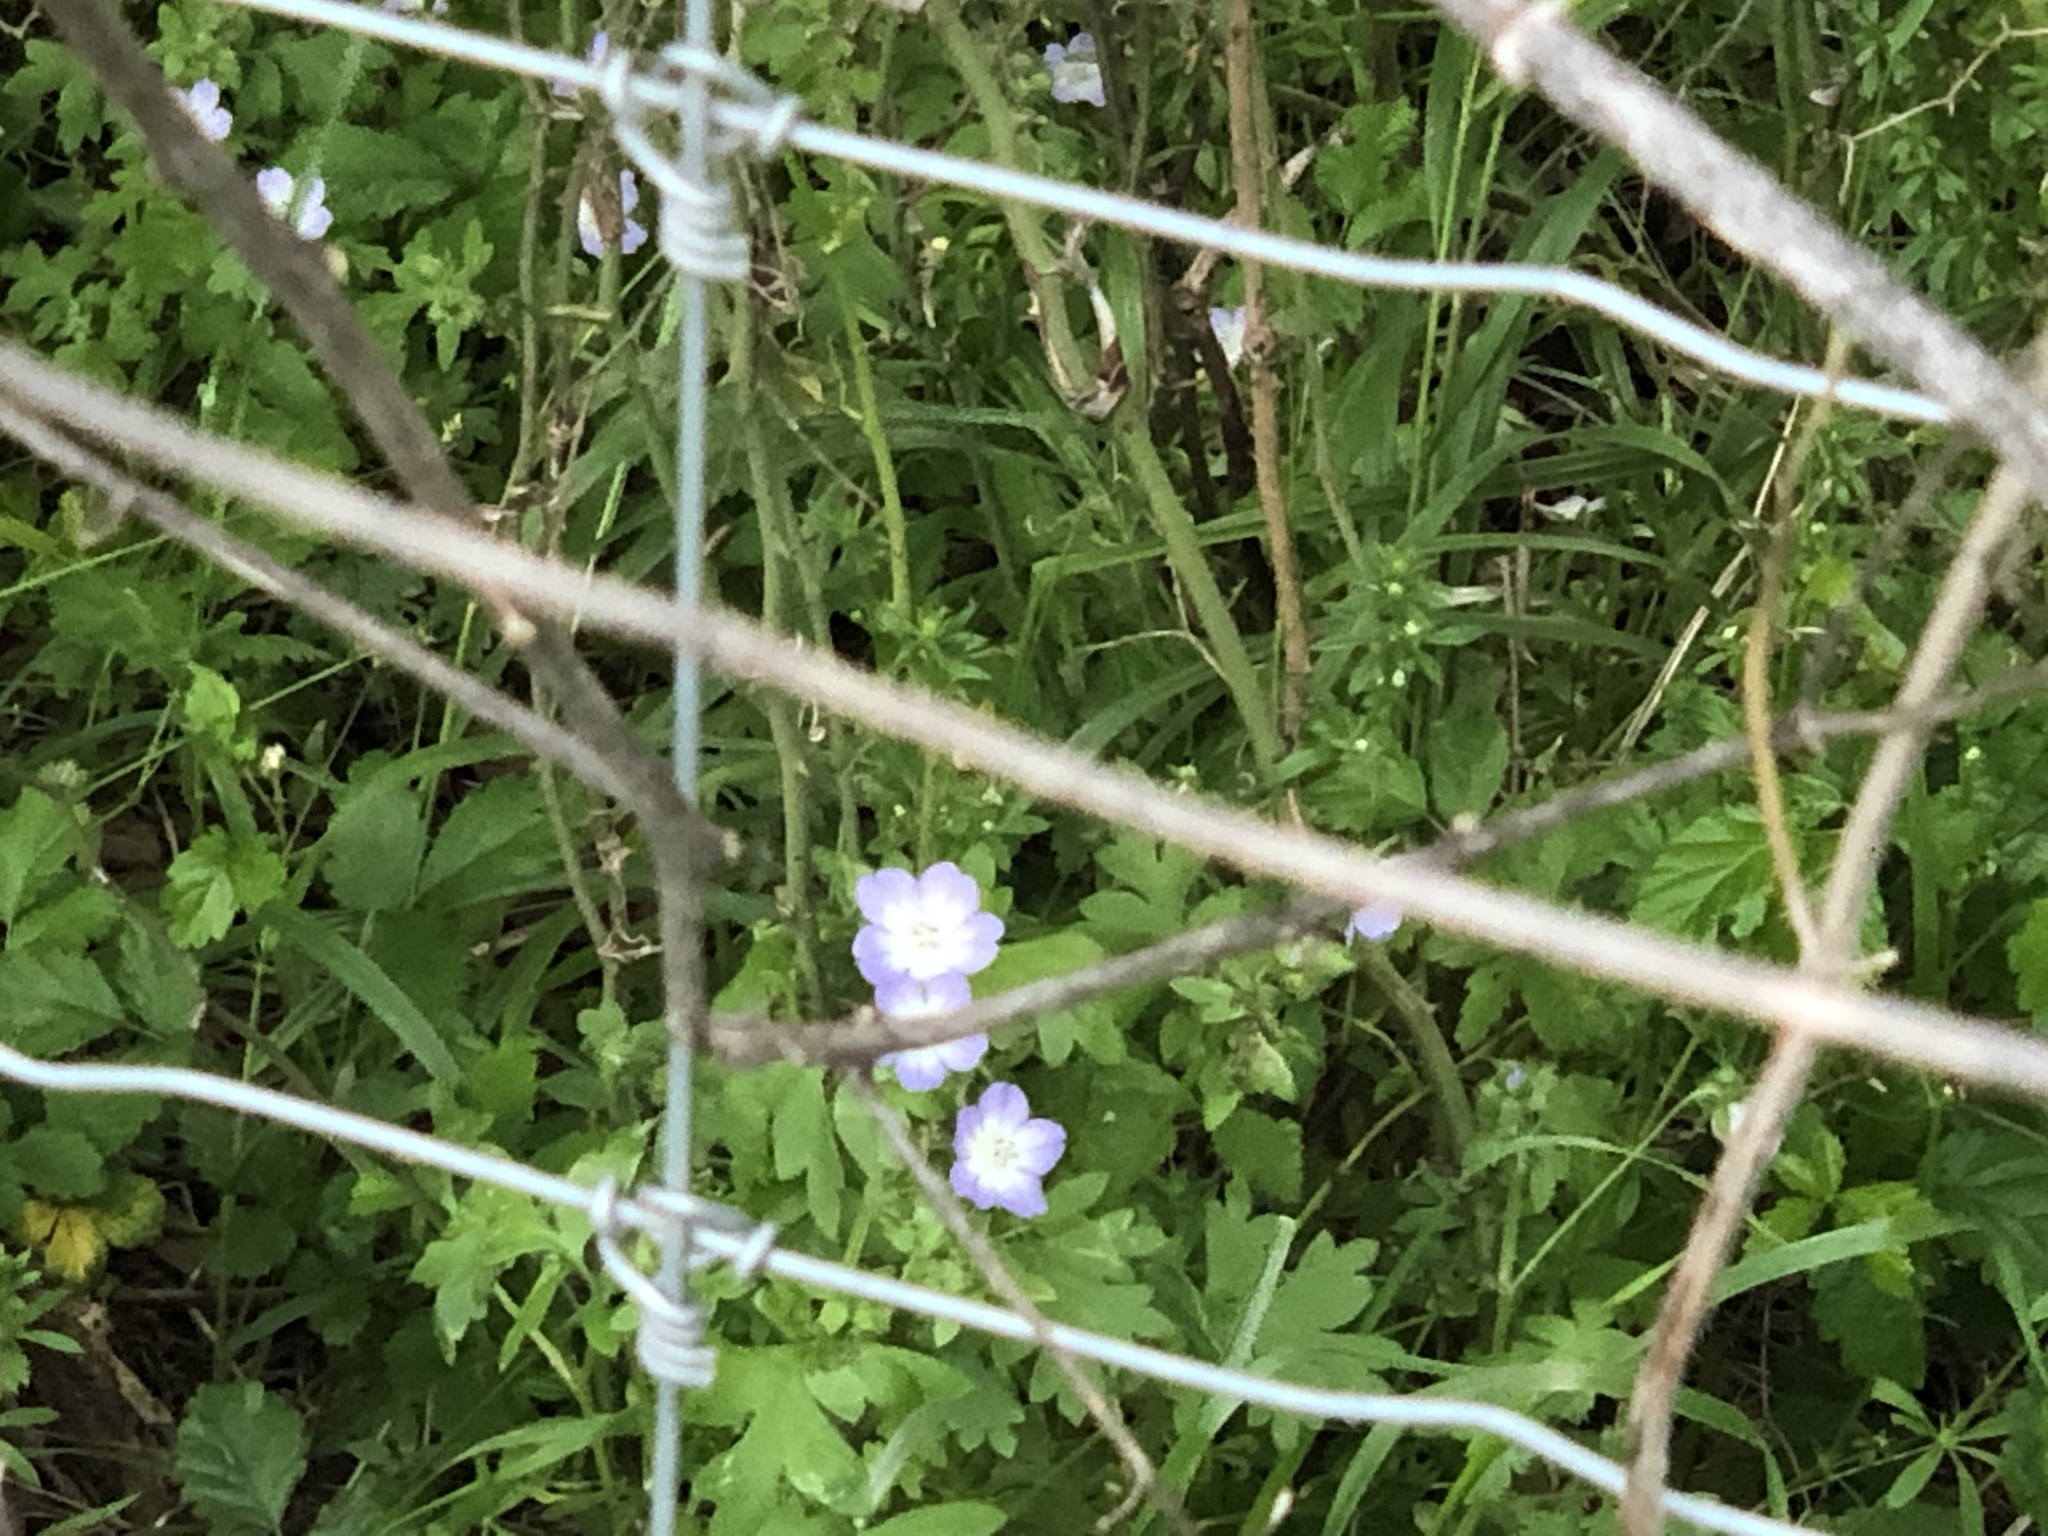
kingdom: Plantae
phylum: Tracheophyta
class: Magnoliopsida
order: Boraginales
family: Hydrophyllaceae
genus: Nemophila
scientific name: Nemophila phacelioides
